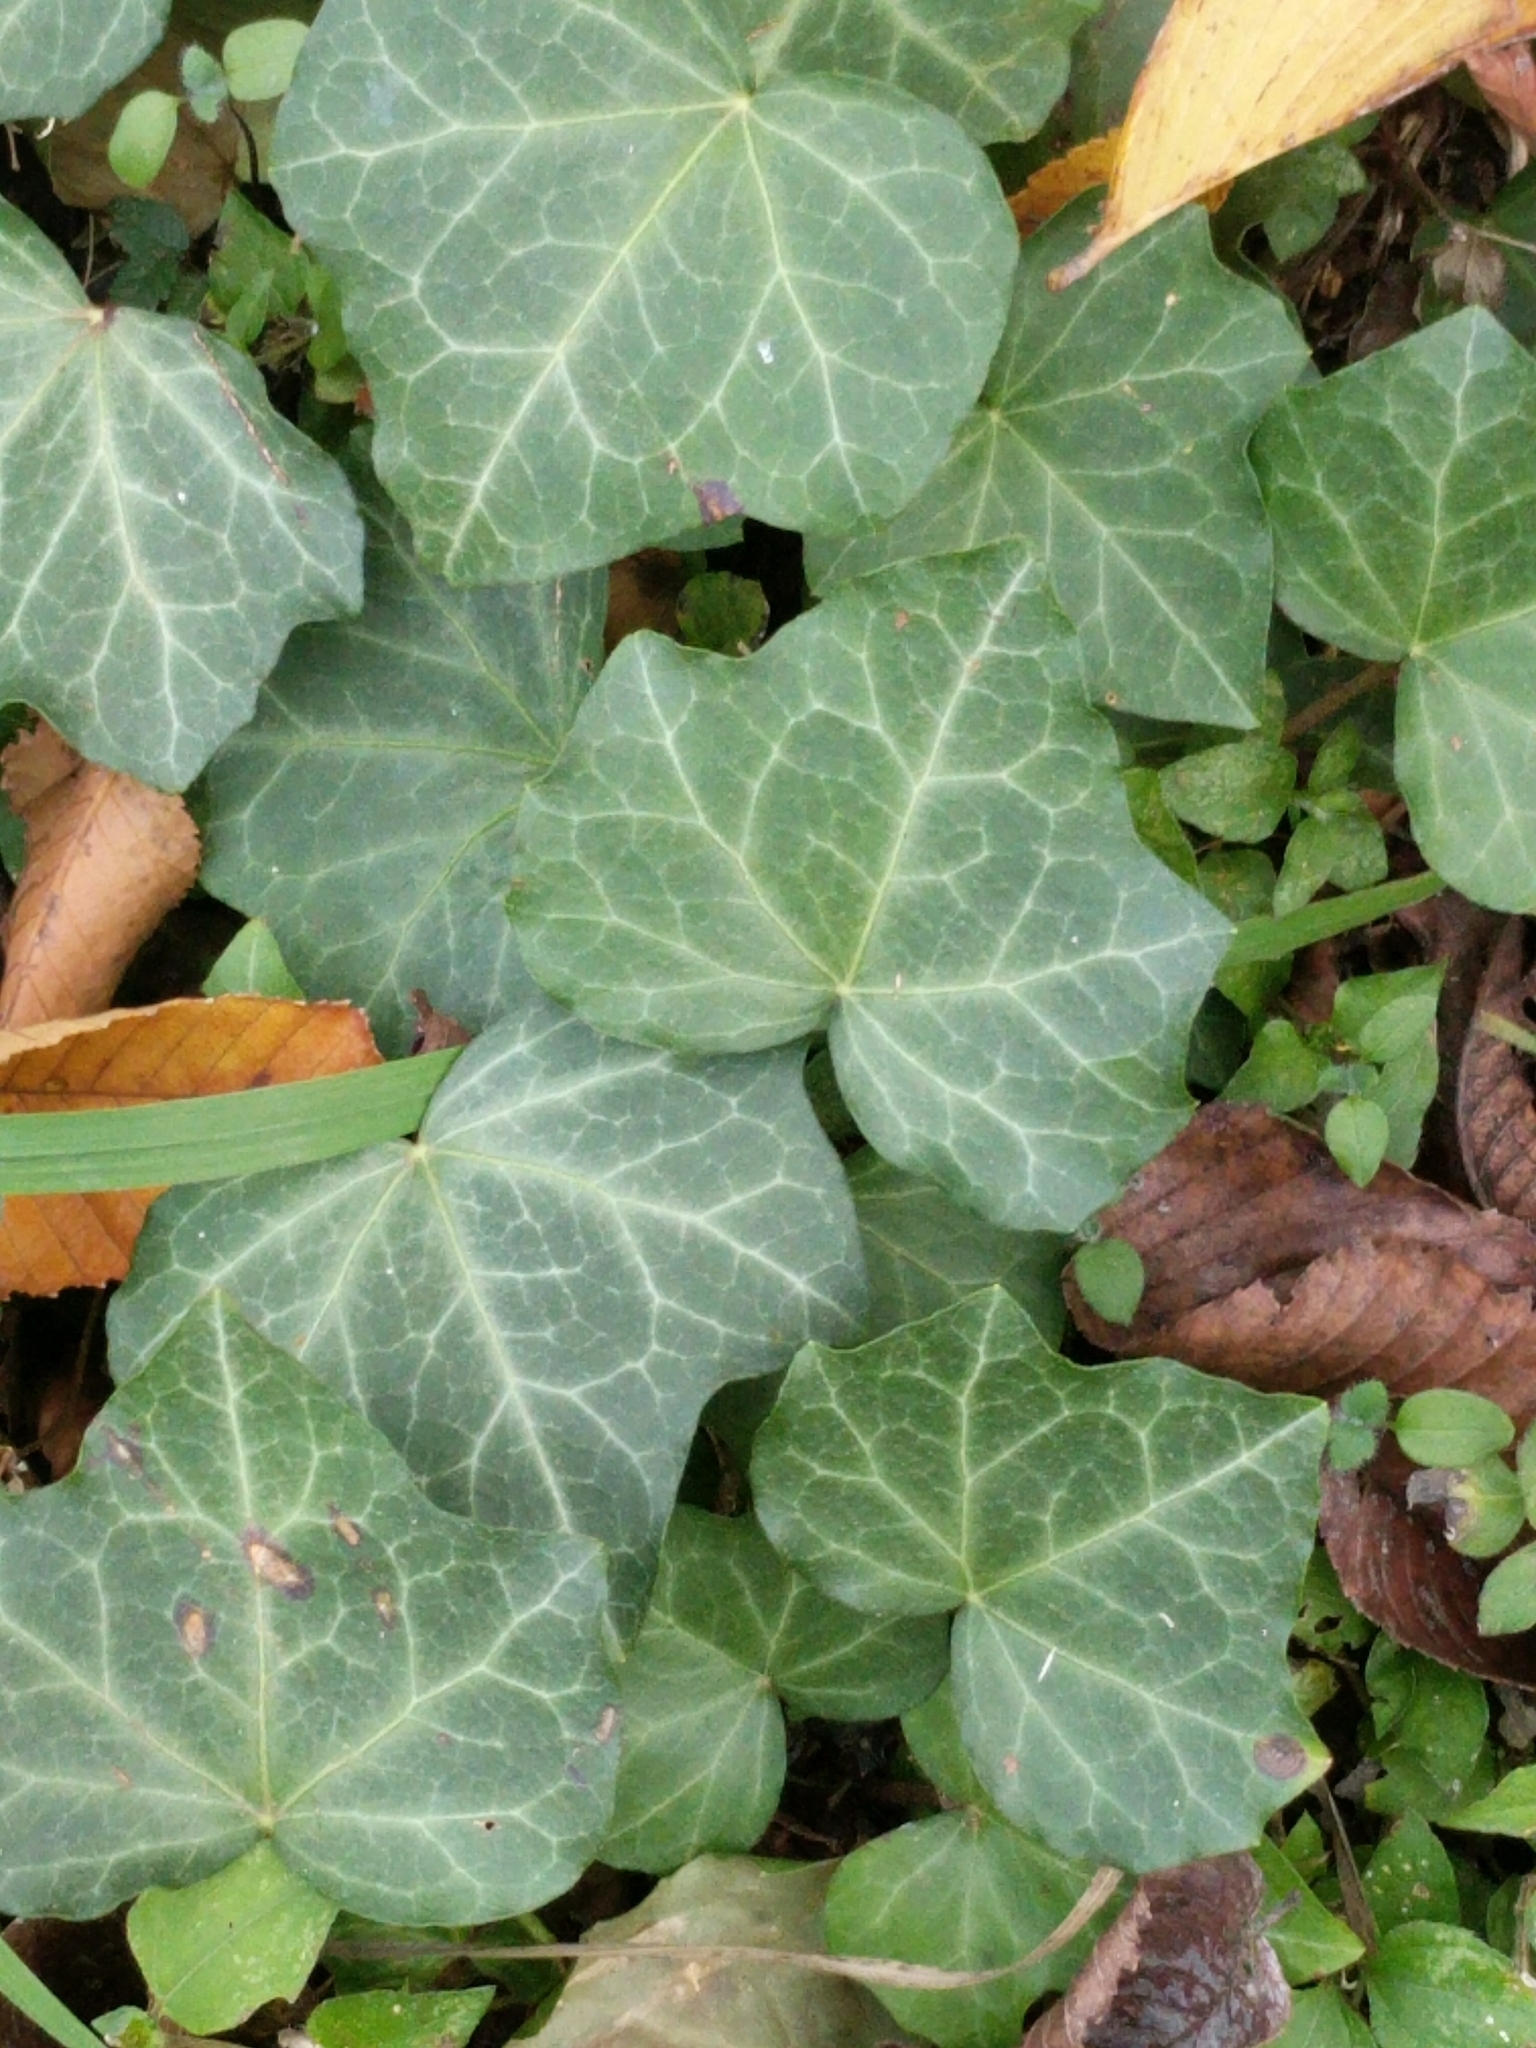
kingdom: Plantae
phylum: Tracheophyta
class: Magnoliopsida
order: Apiales
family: Araliaceae
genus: Hedera
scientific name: Hedera helix
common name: Ivy
